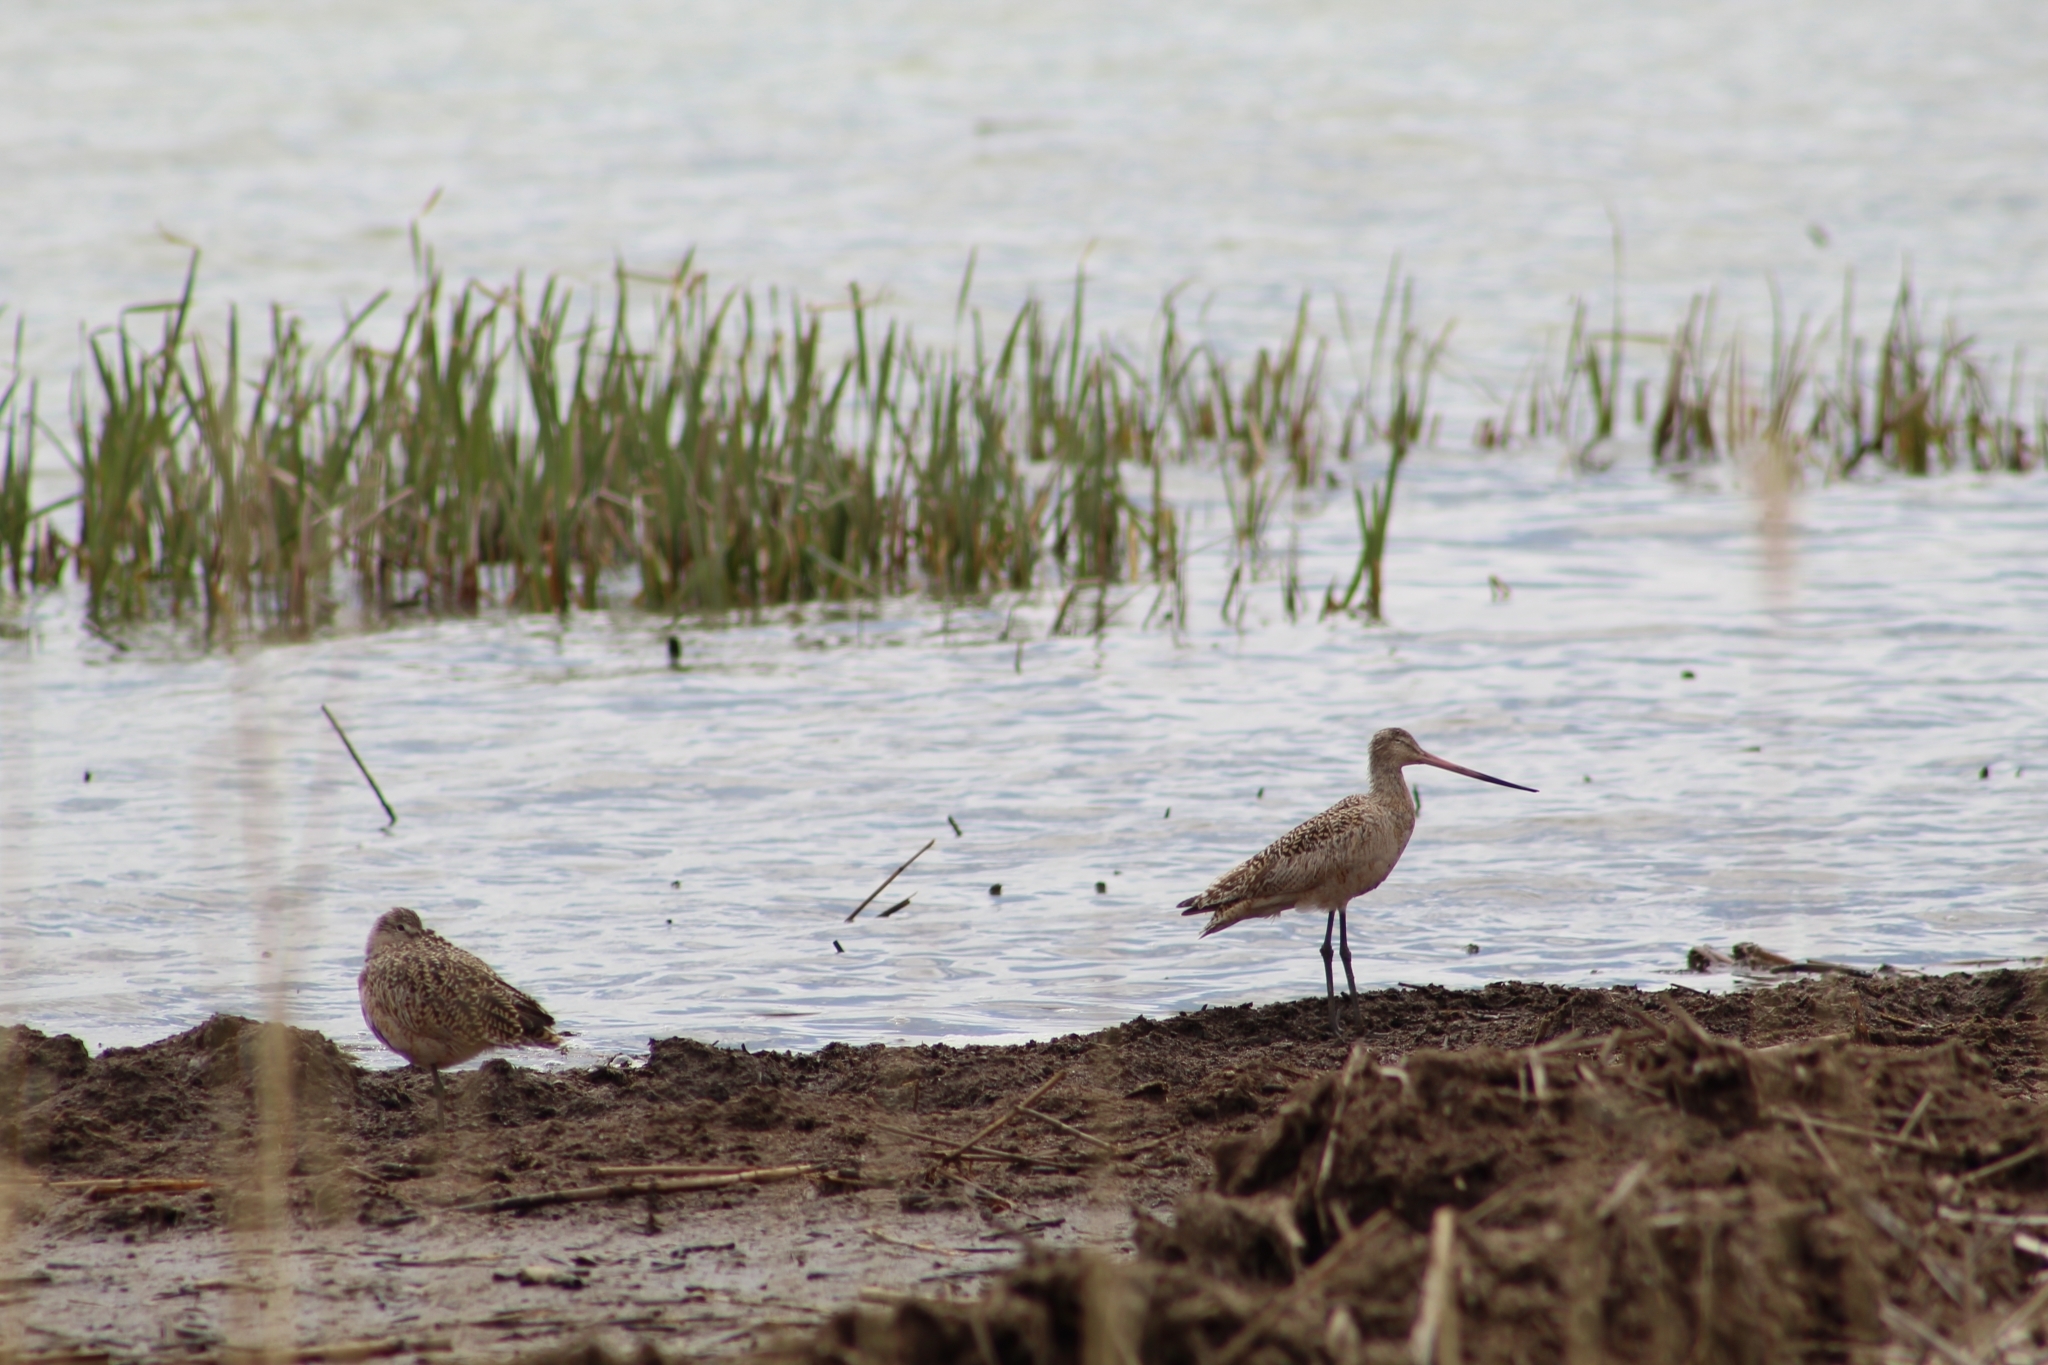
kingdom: Animalia
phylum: Chordata
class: Aves
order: Charadriiformes
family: Scolopacidae
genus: Limosa
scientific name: Limosa fedoa
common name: Marbled godwit
